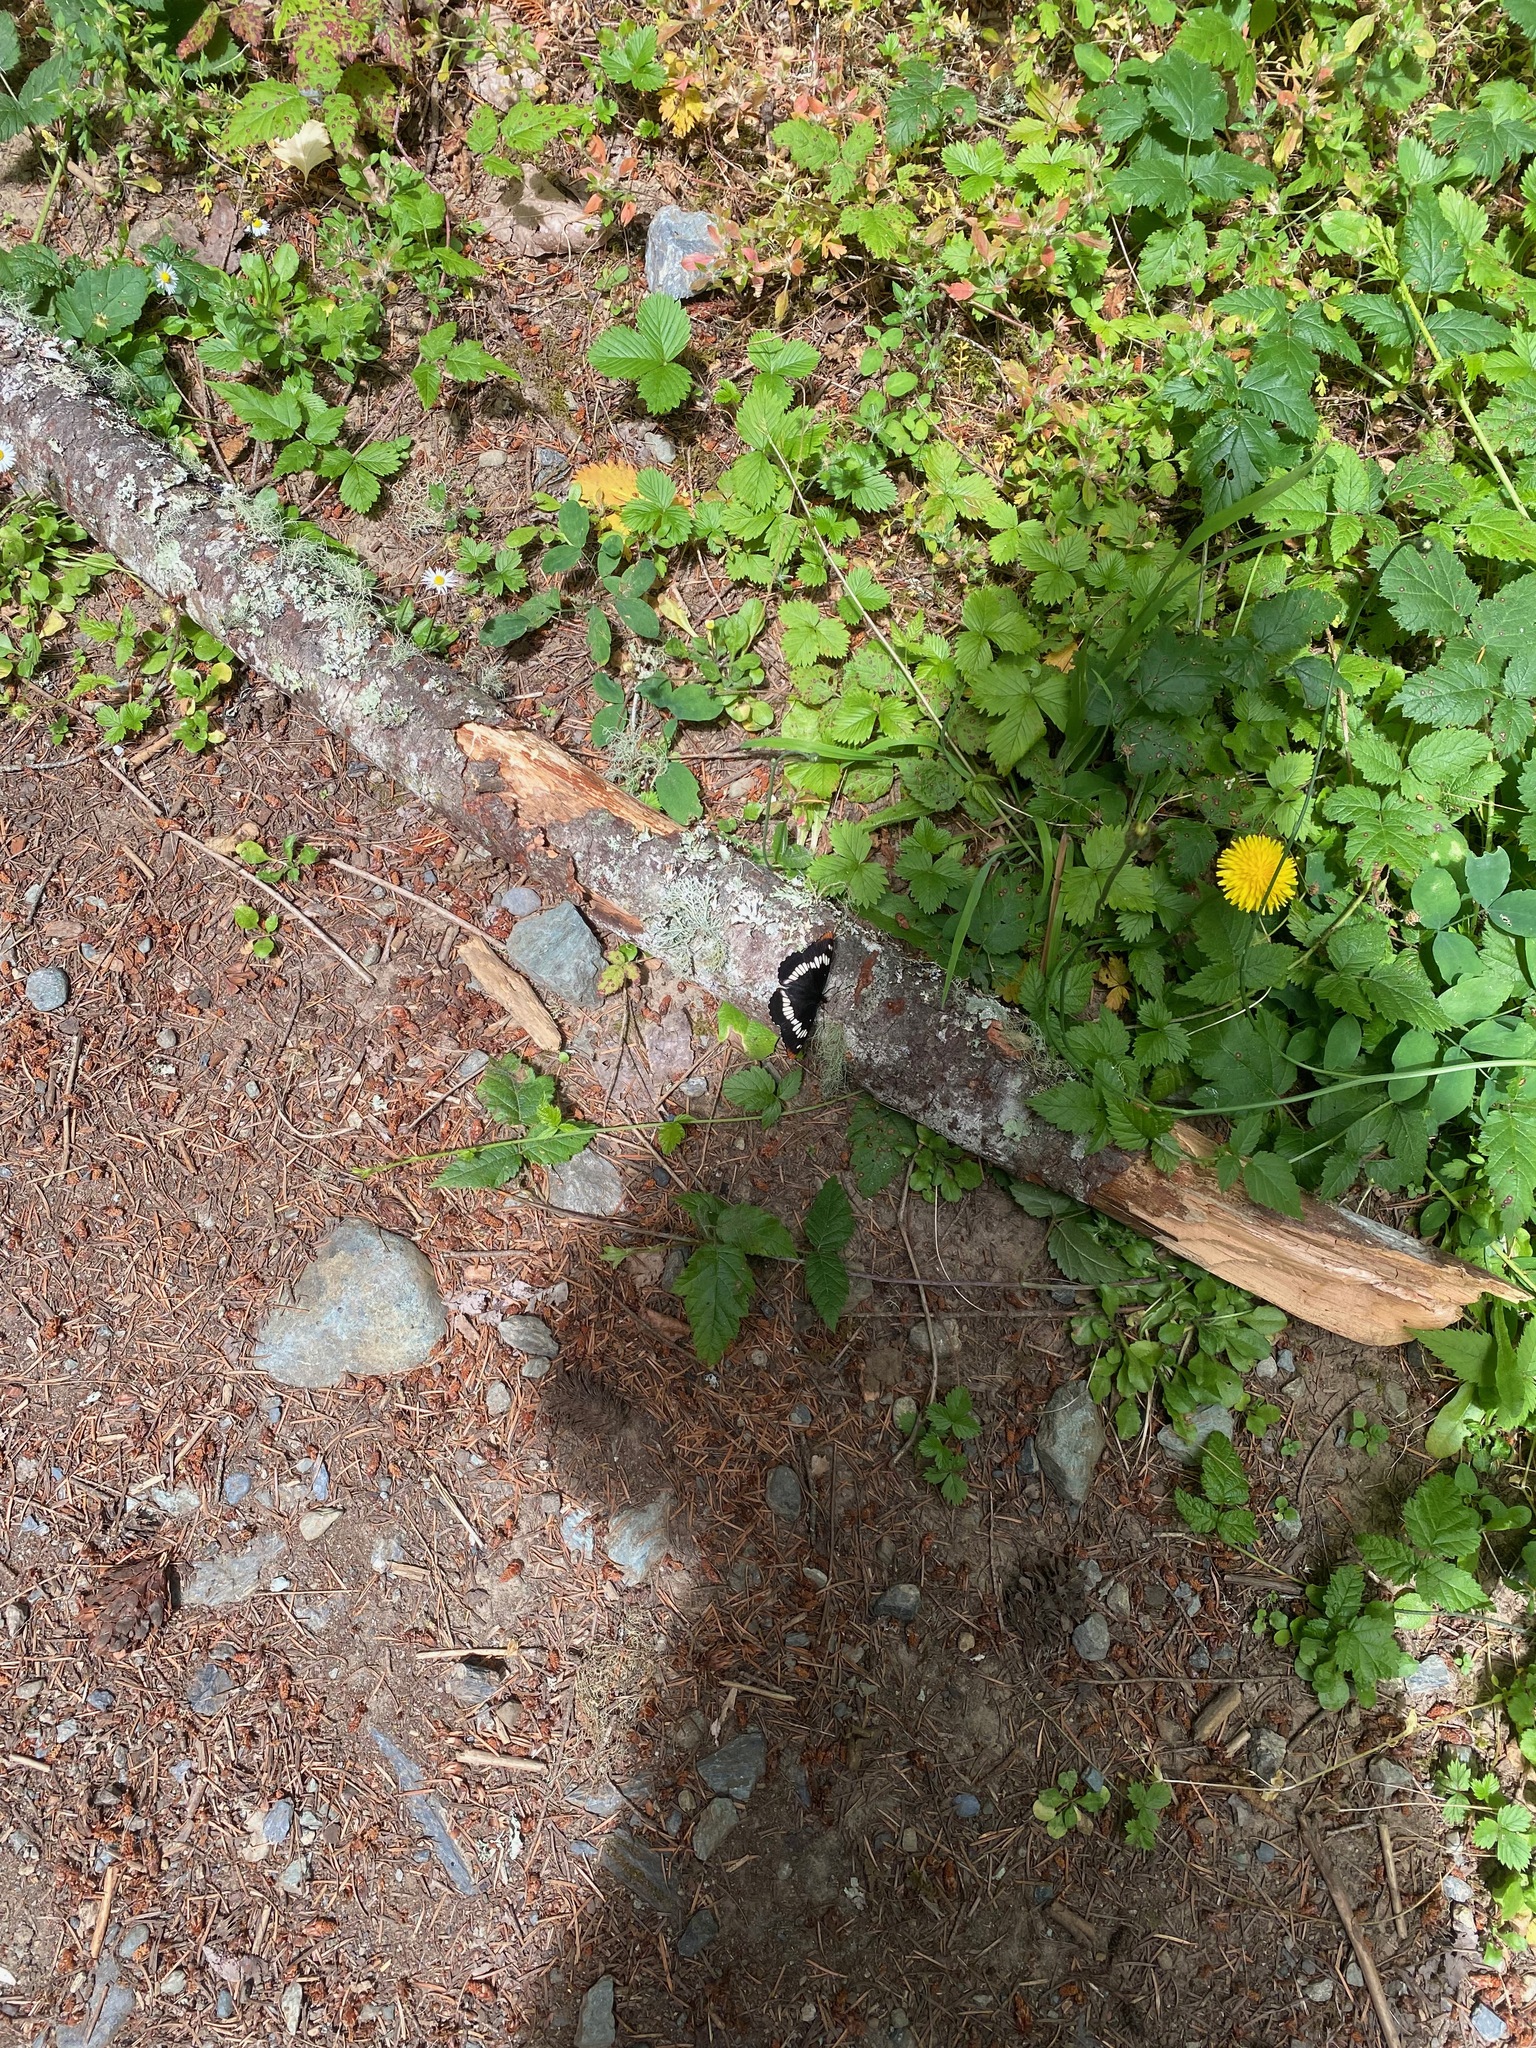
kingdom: Animalia
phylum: Arthropoda
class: Insecta
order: Lepidoptera
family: Nymphalidae
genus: Limenitis
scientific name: Limenitis lorquini
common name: Lorquin's admiral
